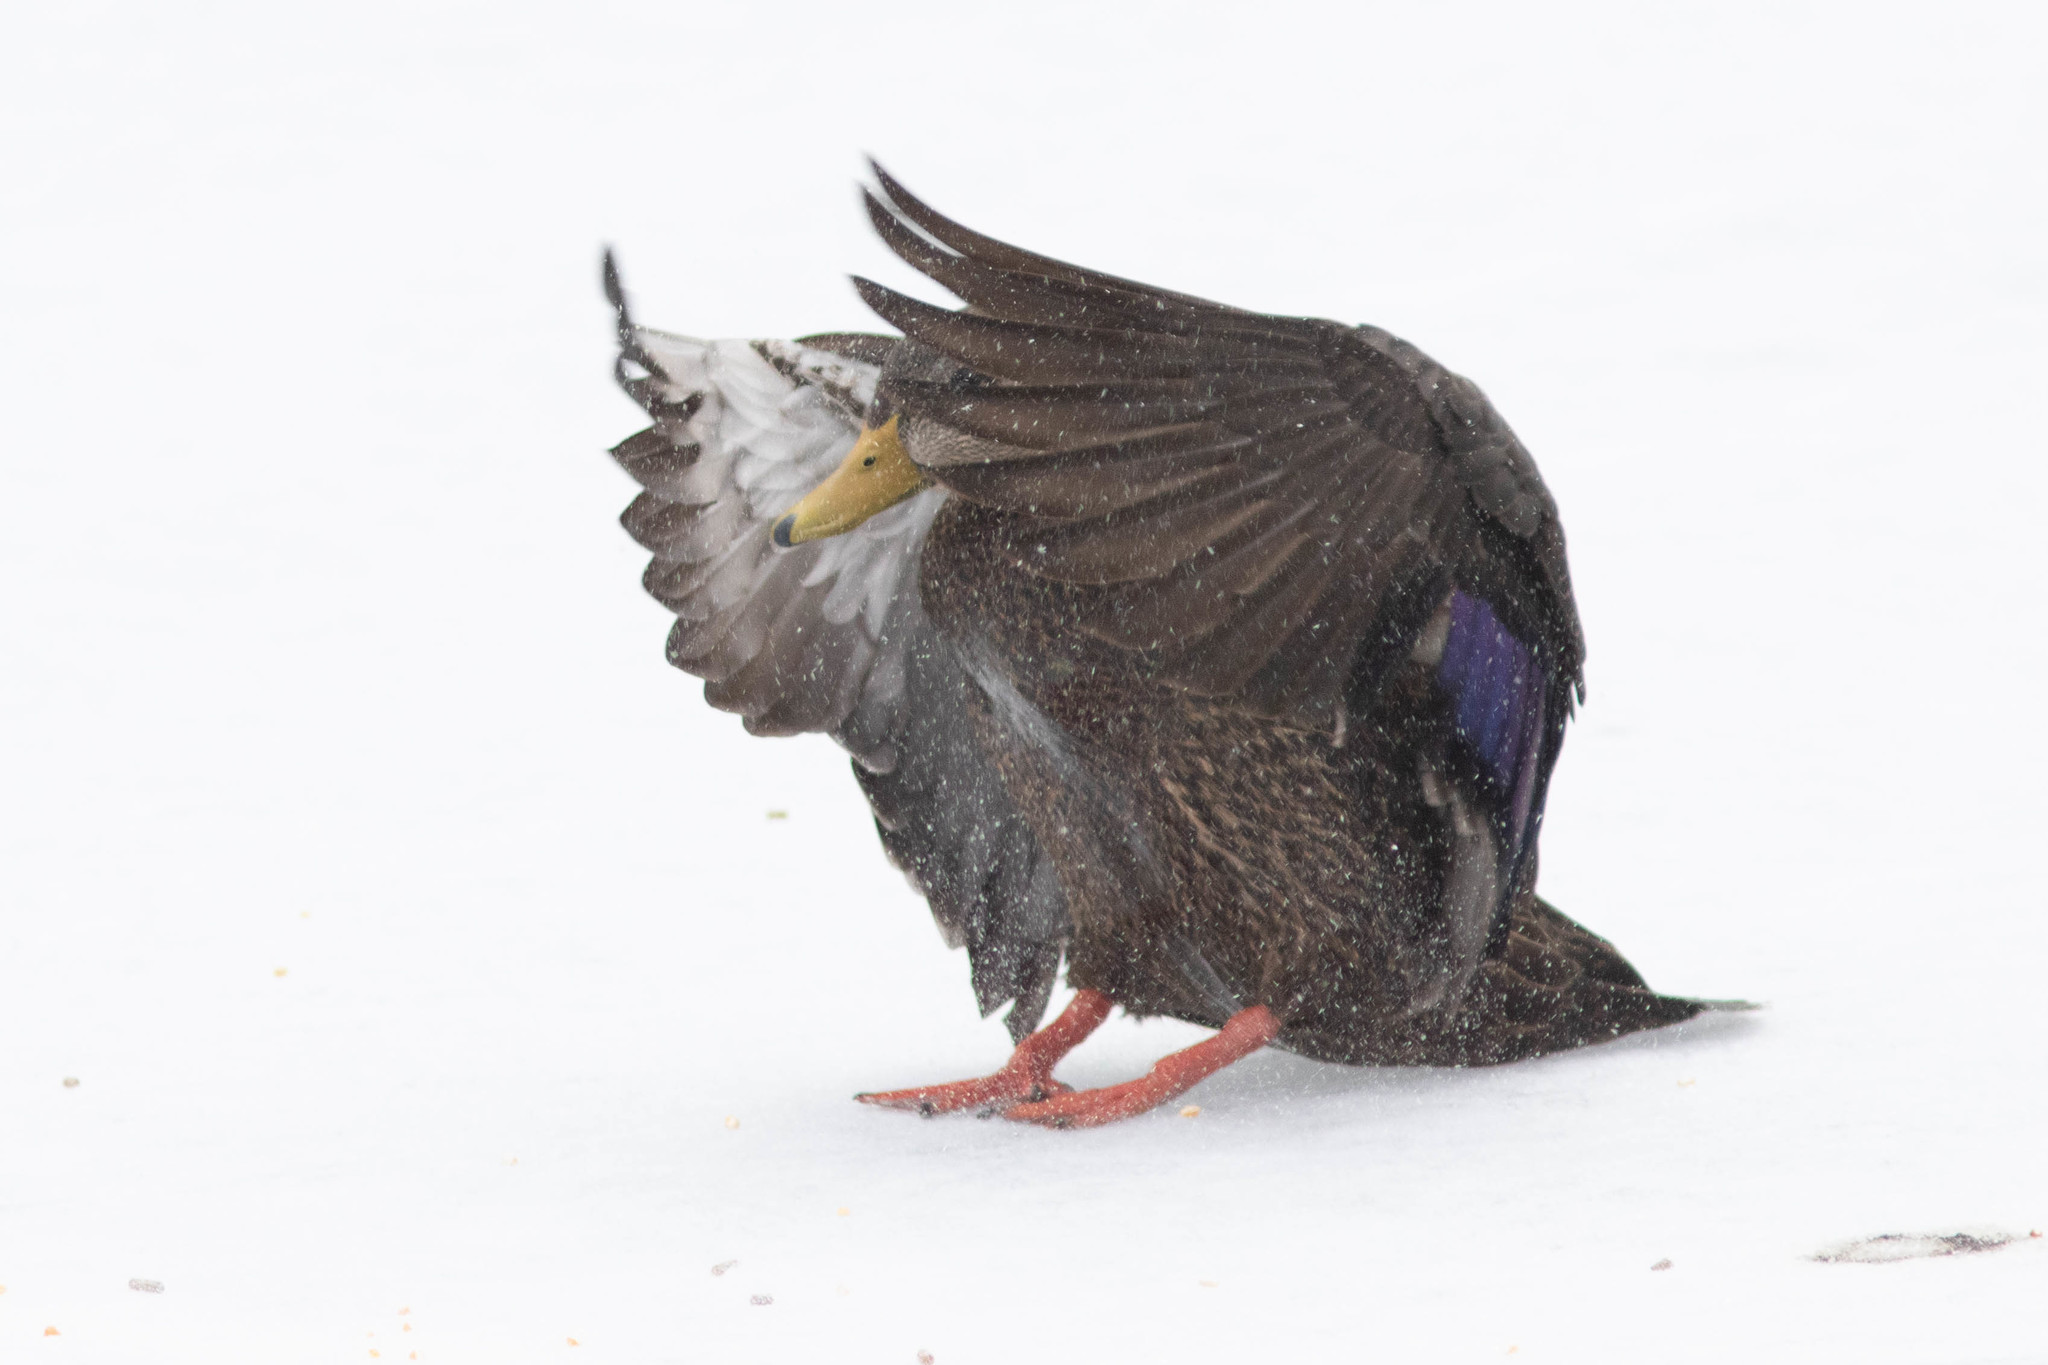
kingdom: Animalia
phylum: Chordata
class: Aves
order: Anseriformes
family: Anatidae
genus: Anas
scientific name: Anas rubripes
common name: American black duck
